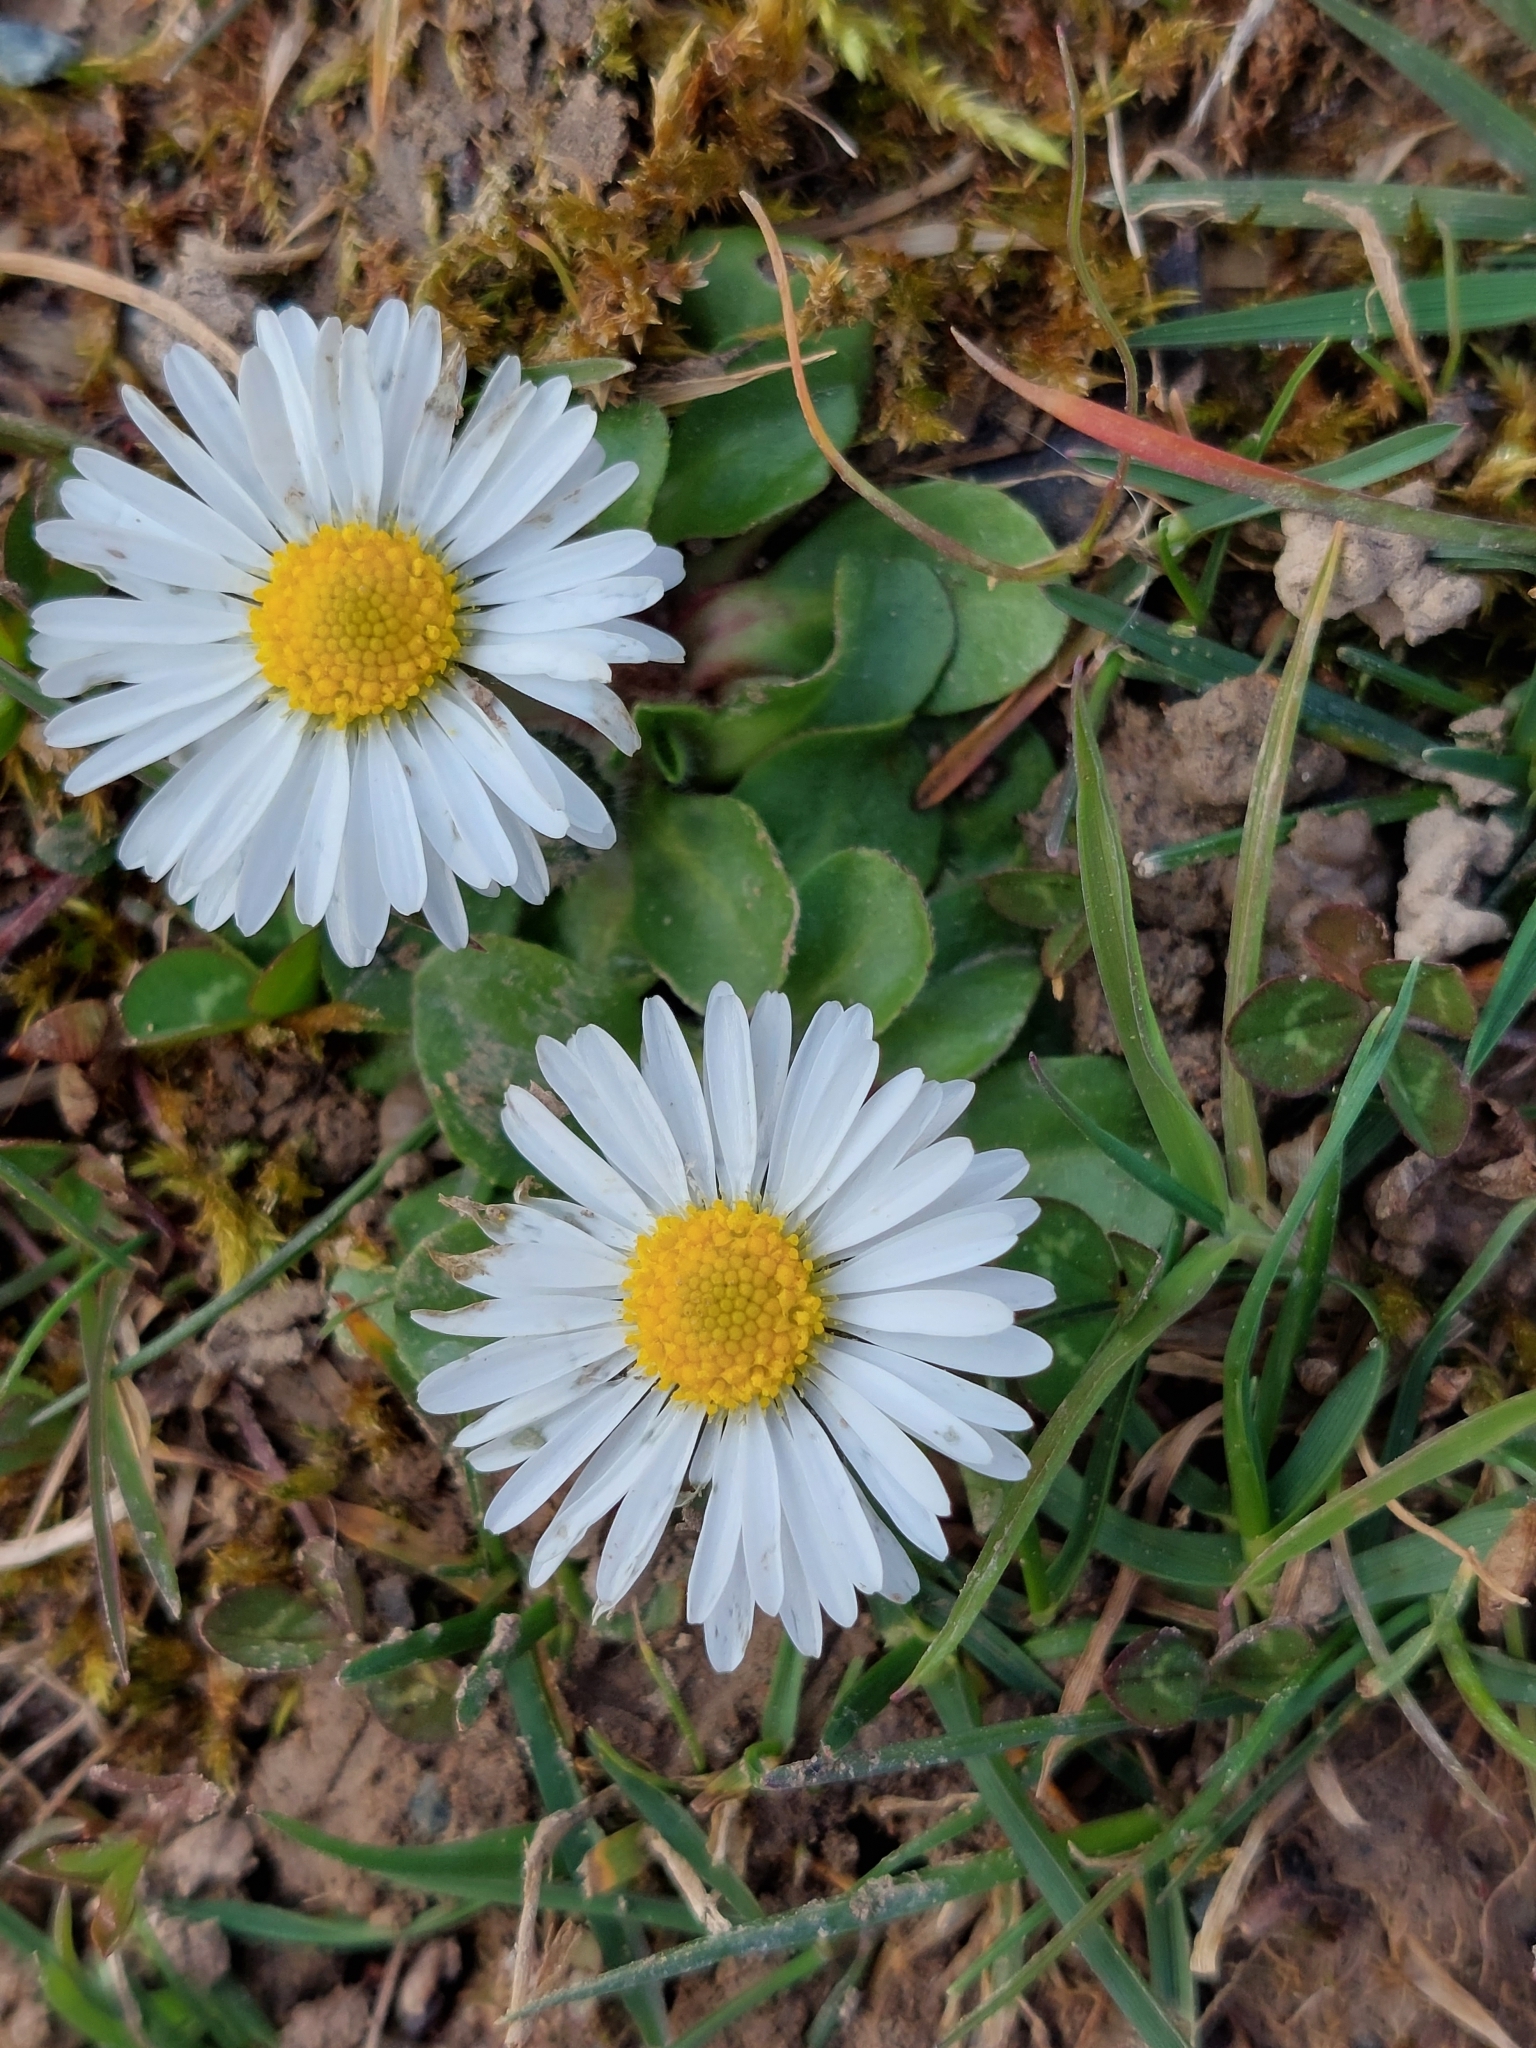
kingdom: Plantae
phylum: Tracheophyta
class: Magnoliopsida
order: Asterales
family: Asteraceae
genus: Bellis
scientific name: Bellis perennis
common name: Lawndaisy
